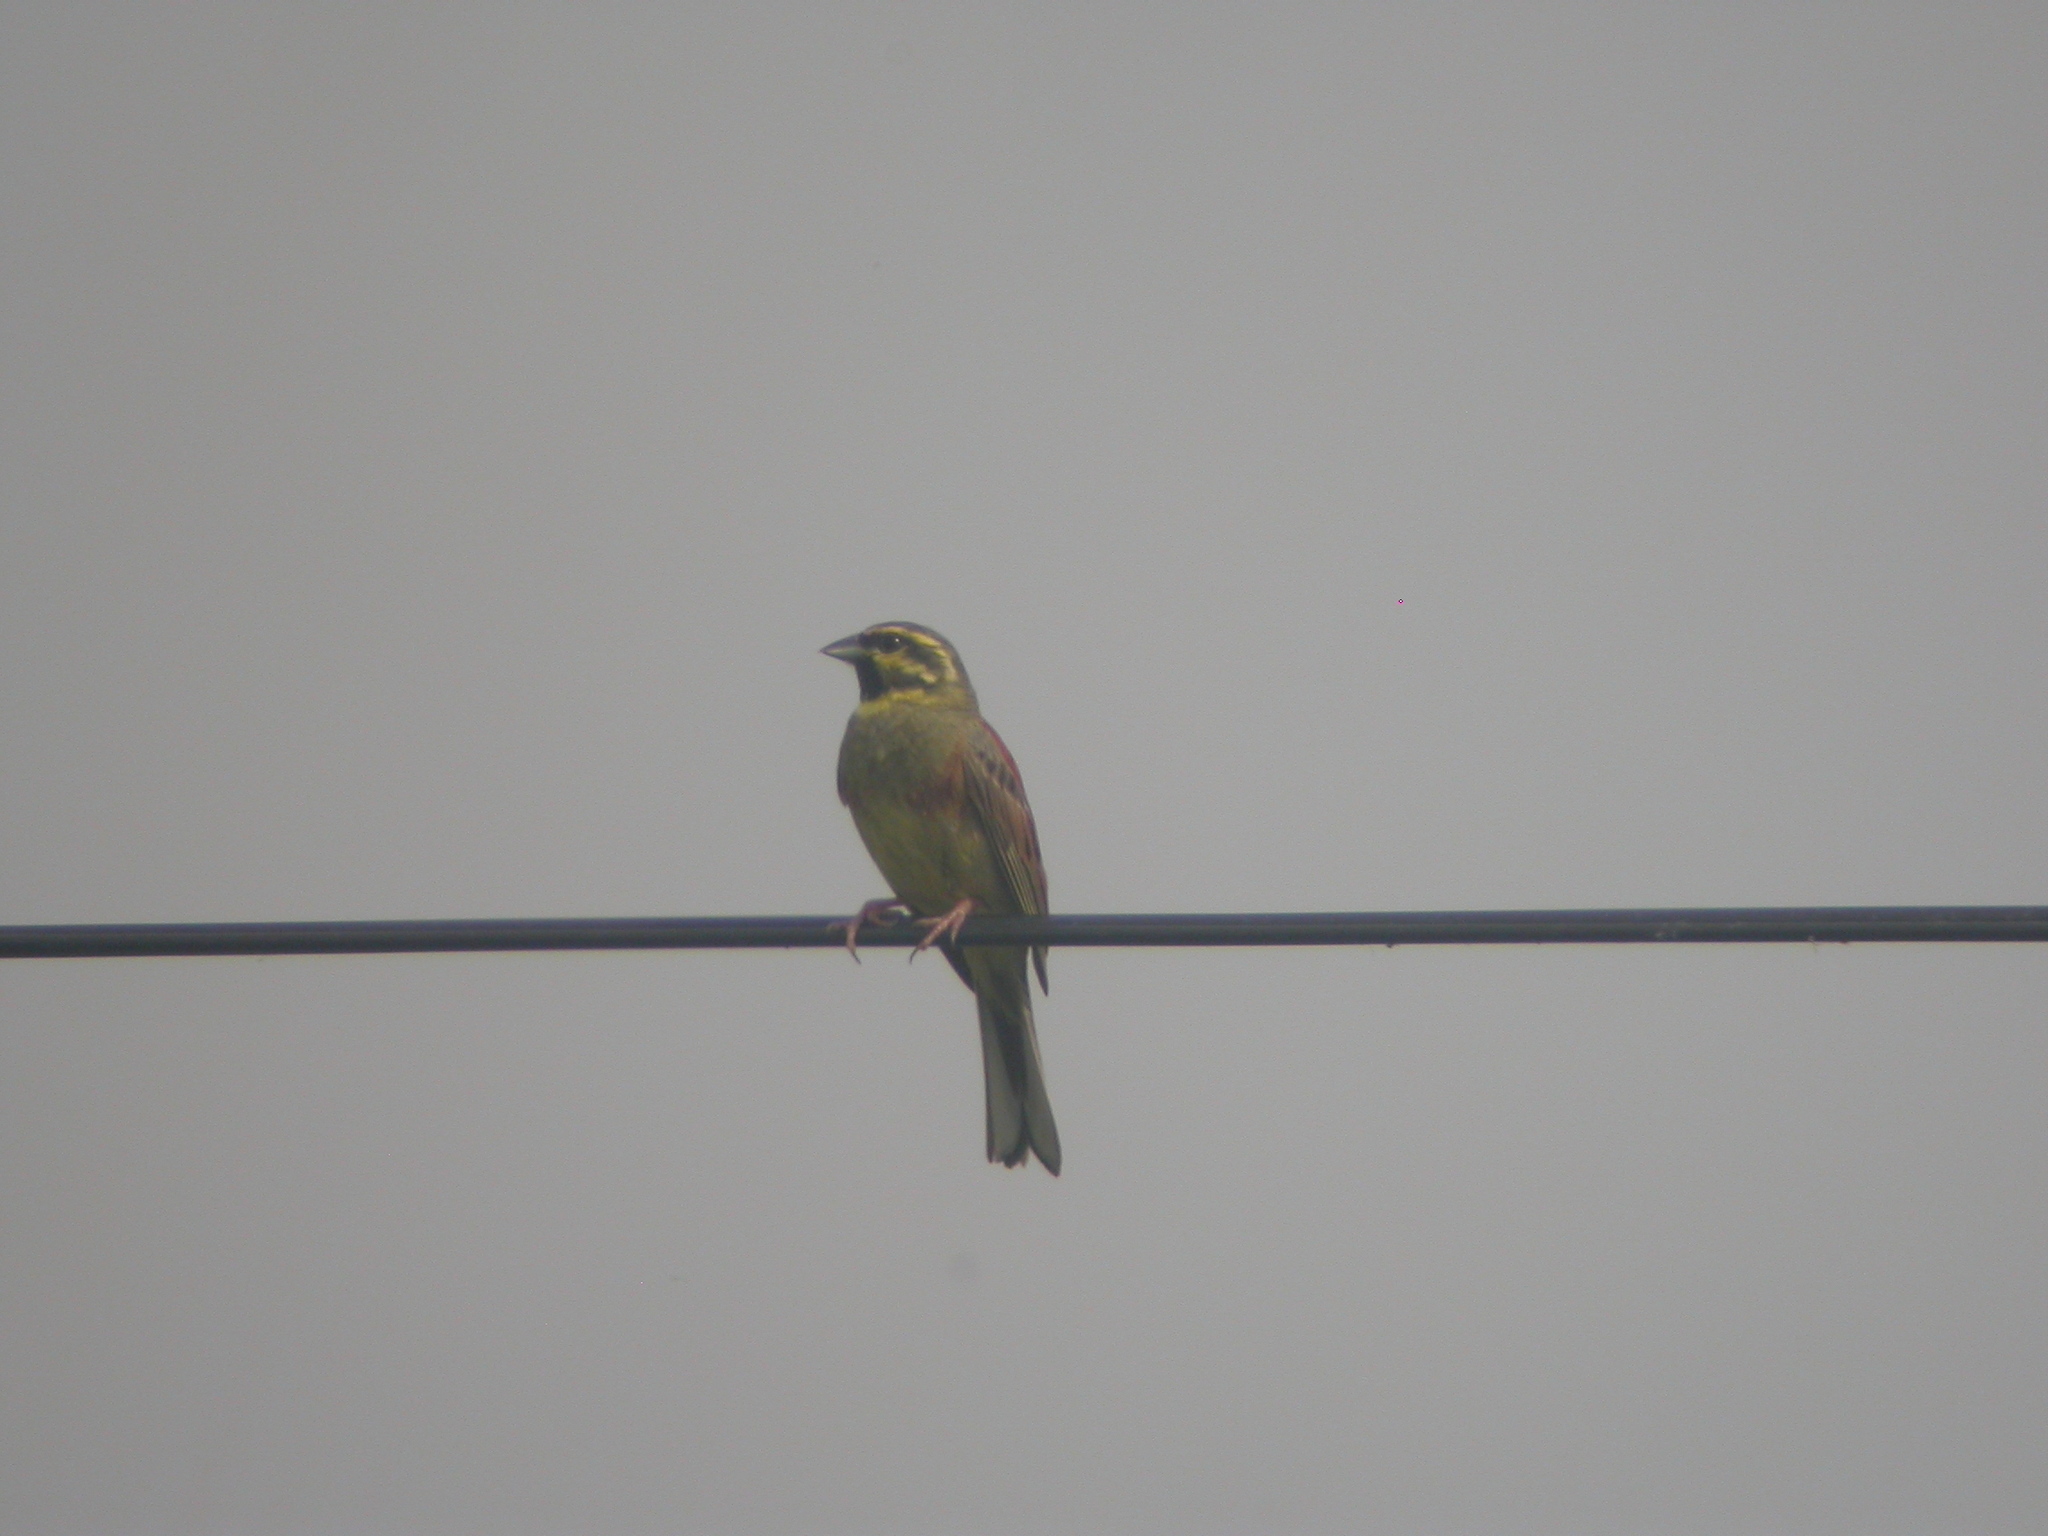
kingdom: Animalia
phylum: Chordata
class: Aves
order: Passeriformes
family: Emberizidae
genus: Emberiza
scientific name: Emberiza cirlus
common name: Cirl bunting
